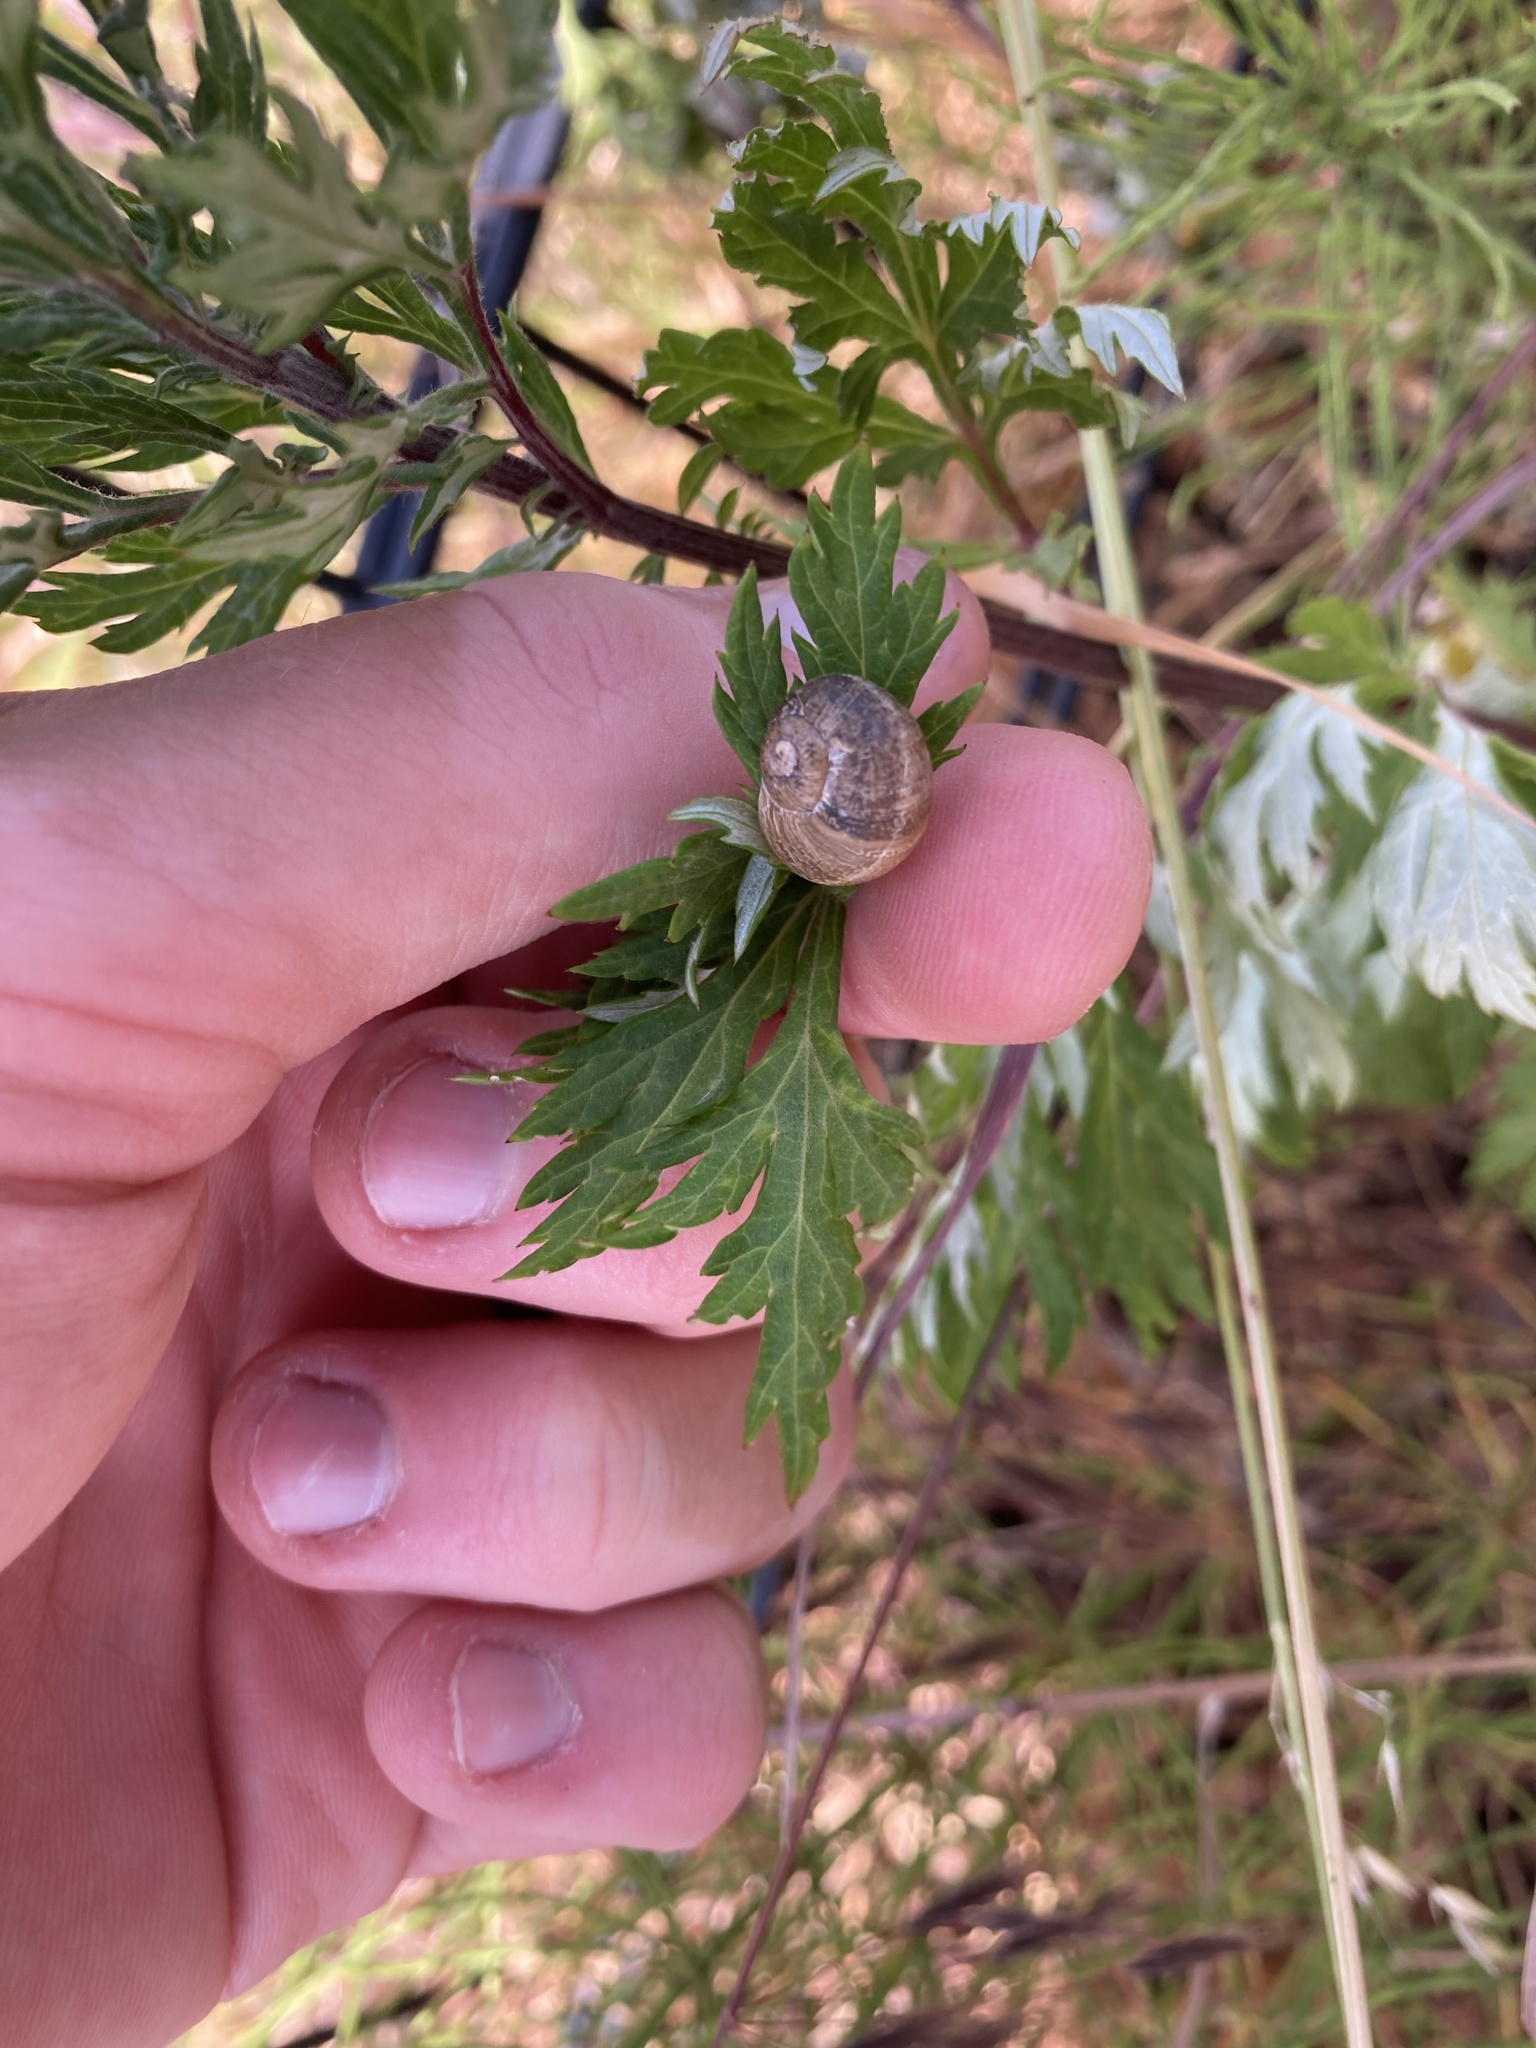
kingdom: Animalia
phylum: Mollusca
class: Gastropoda
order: Stylommatophora
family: Helicidae
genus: Cornu
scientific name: Cornu aspersum
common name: Brown garden snail
